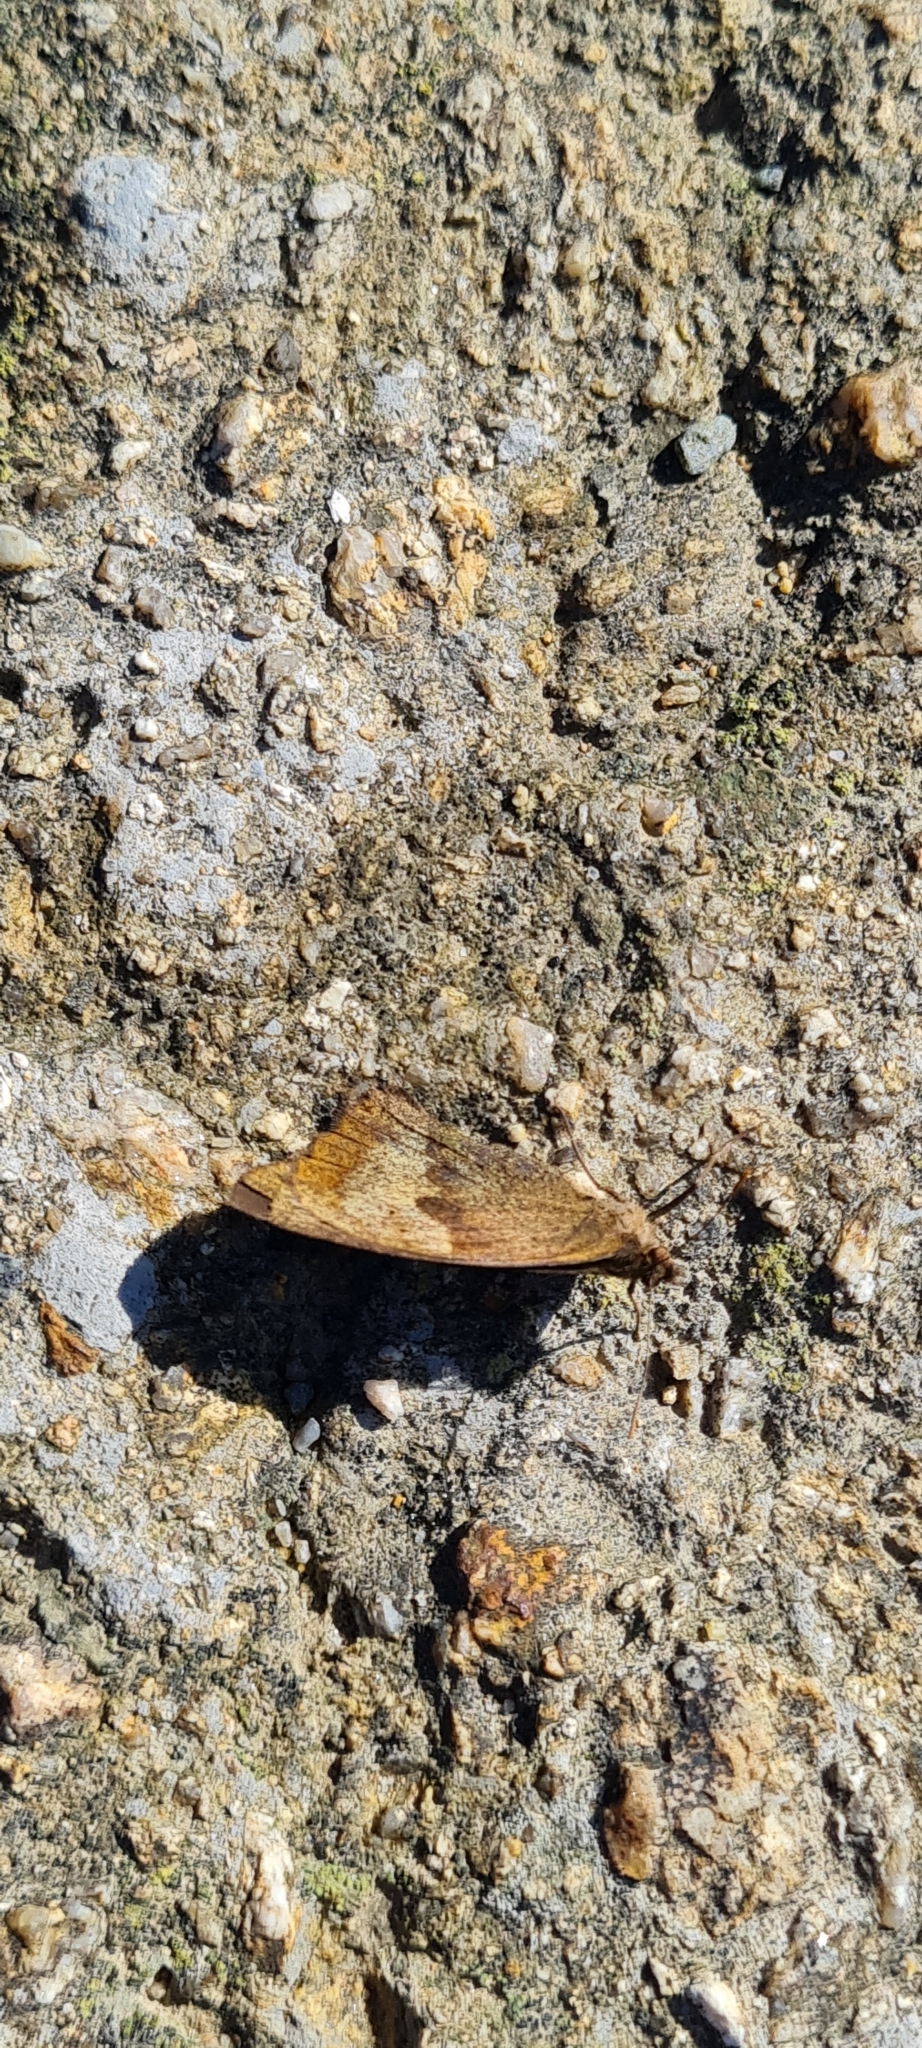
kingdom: Animalia
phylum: Arthropoda
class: Insecta
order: Lepidoptera
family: Nymphalidae
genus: Maniola
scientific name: Maniola jurtina
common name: Meadow brown
